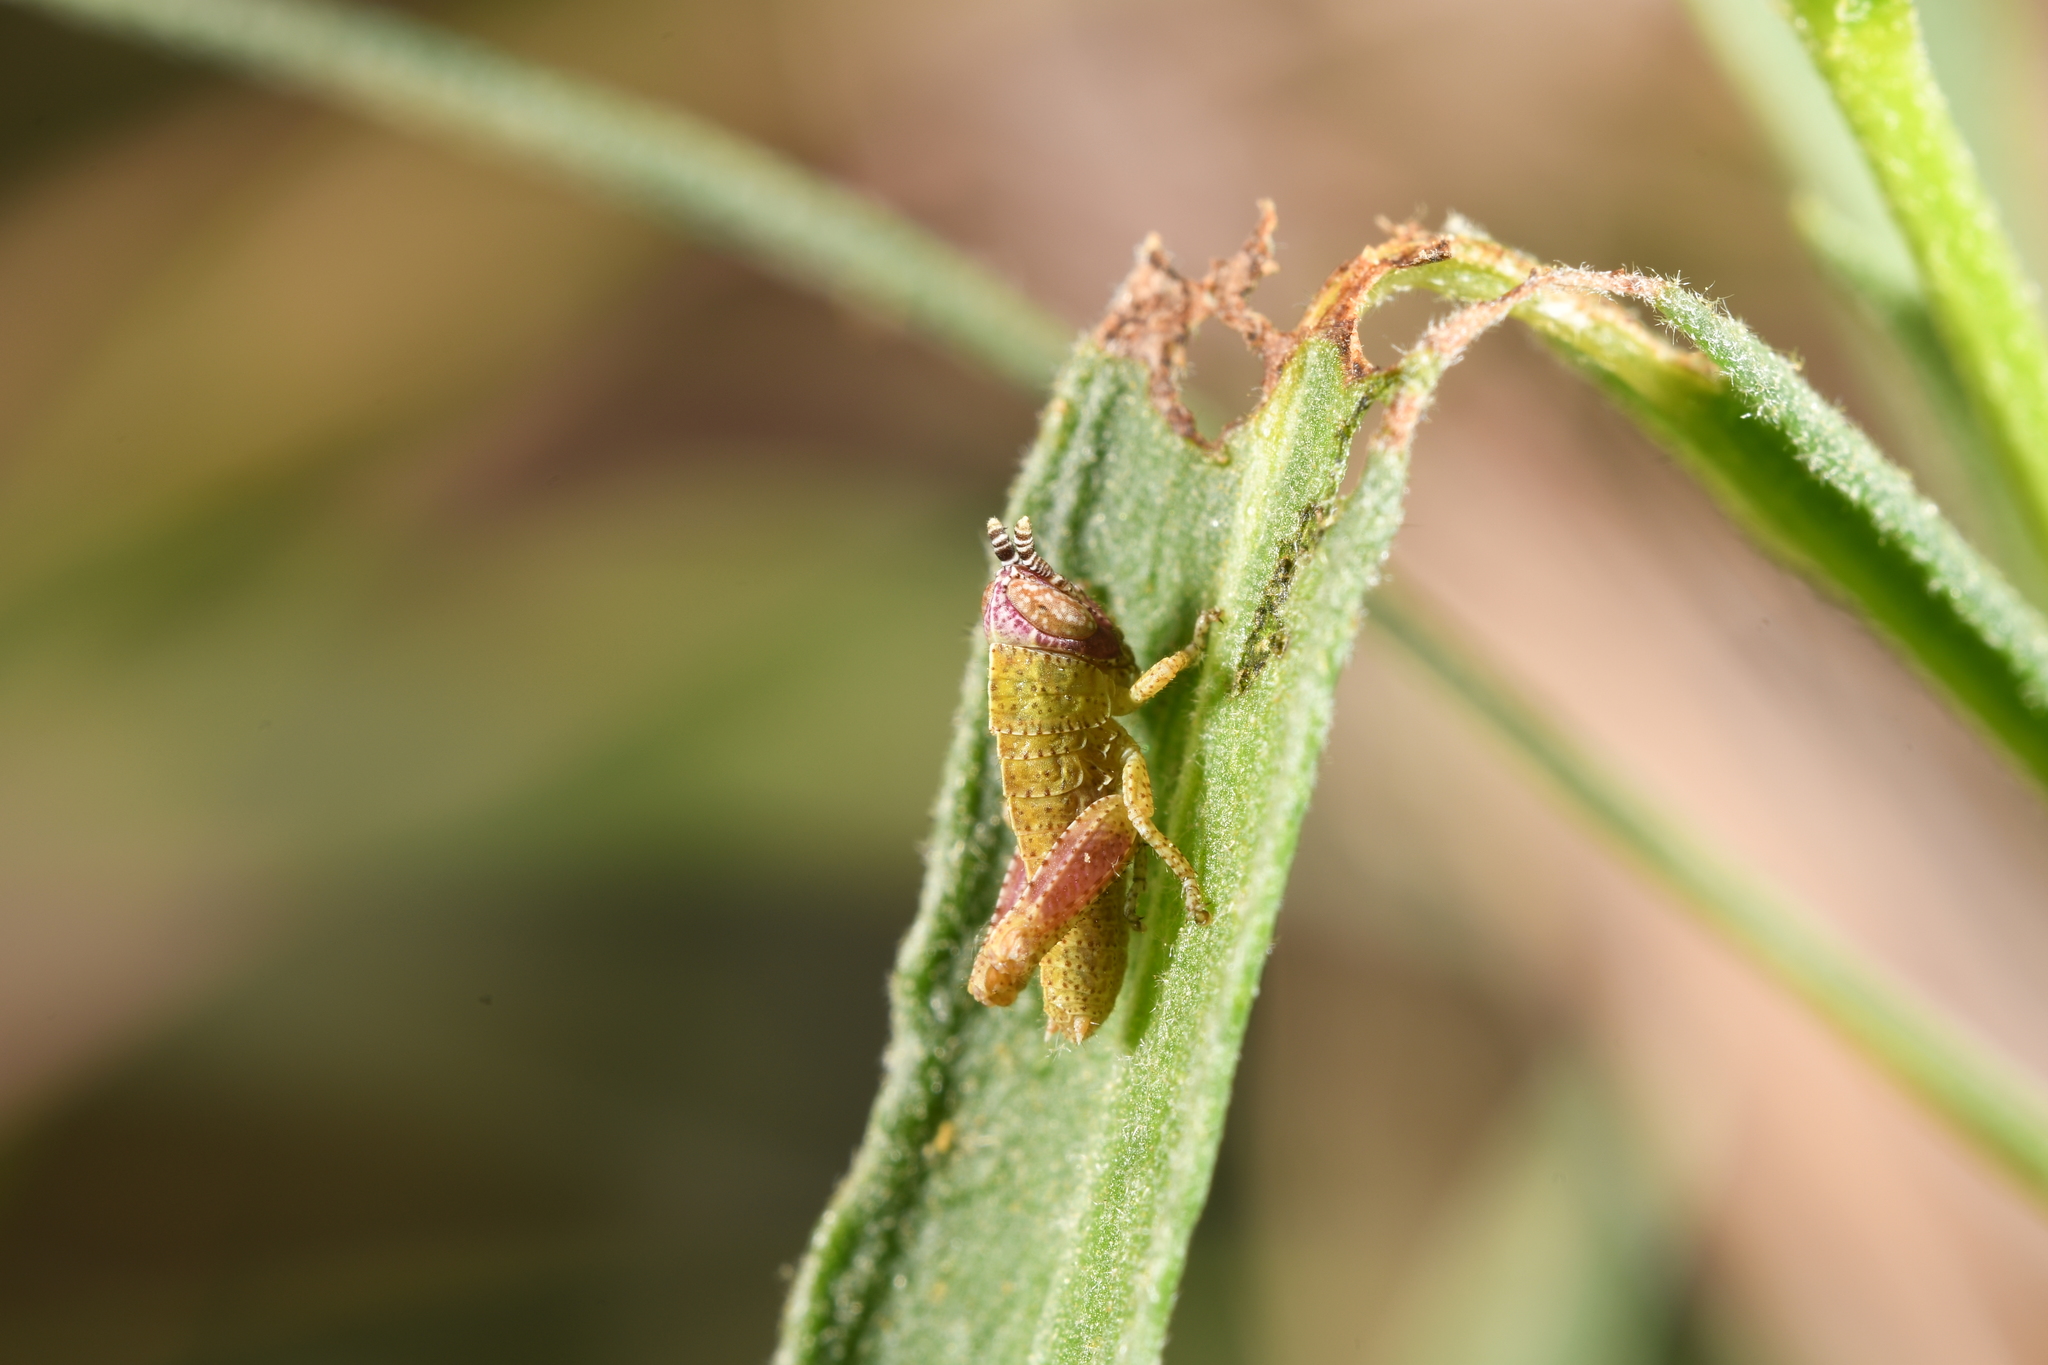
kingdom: Animalia
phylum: Arthropoda
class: Insecta
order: Orthoptera
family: Acrididae
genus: Pezotettix
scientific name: Pezotettix giornae
